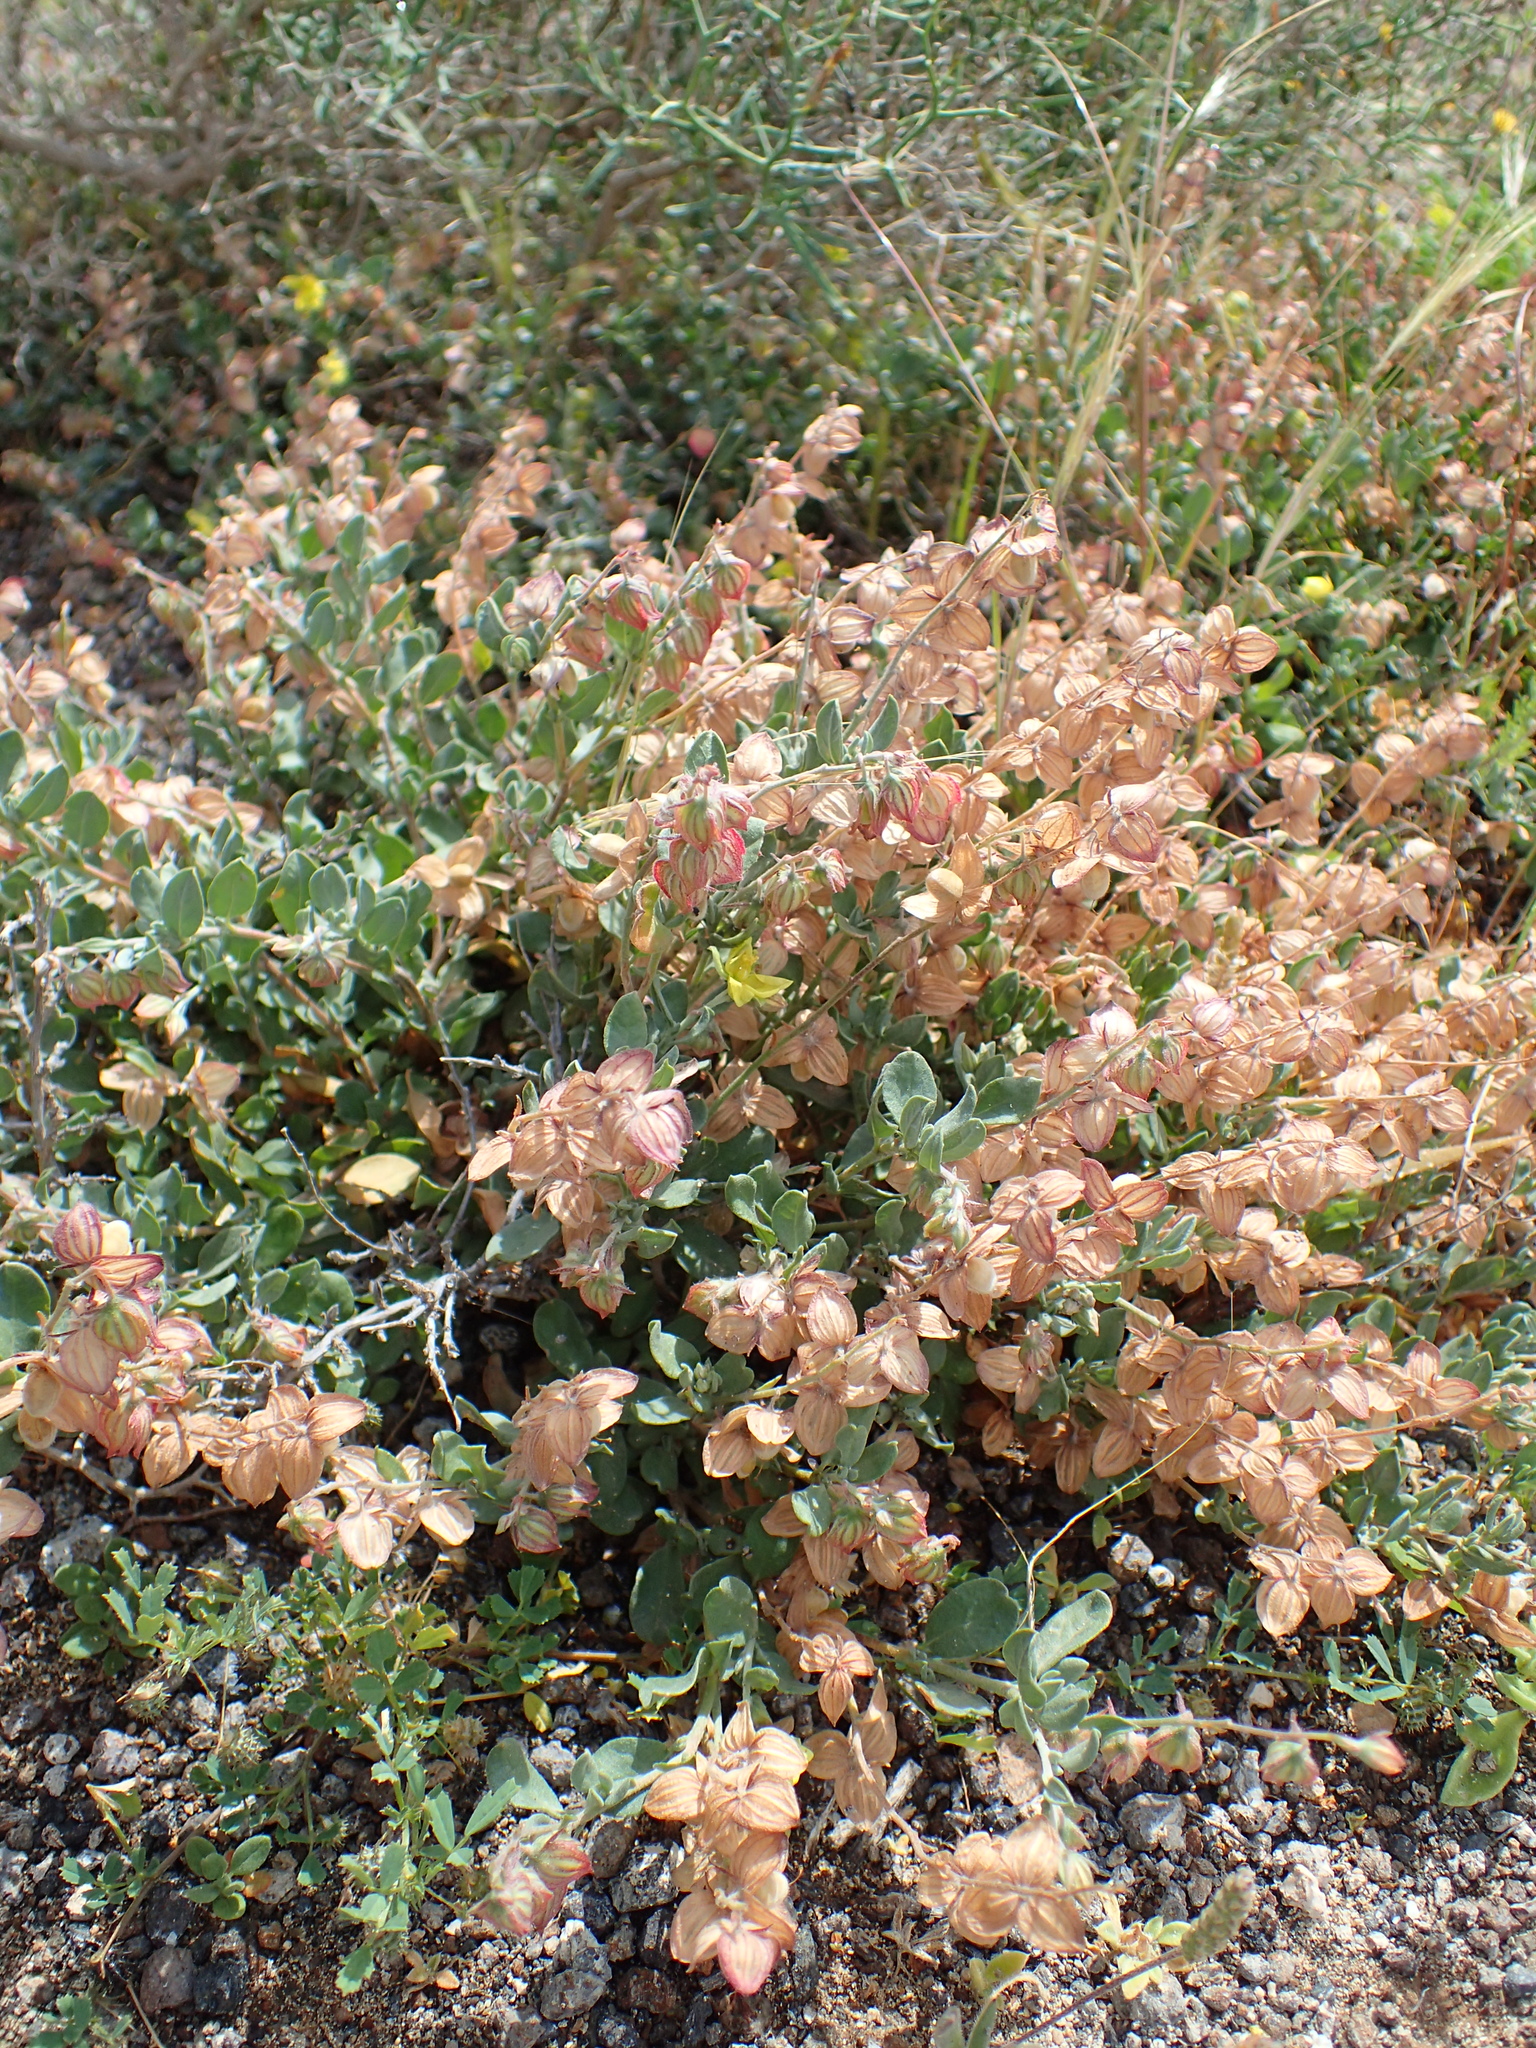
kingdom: Plantae
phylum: Tracheophyta
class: Magnoliopsida
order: Malvales
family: Cistaceae
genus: Helianthemum
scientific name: Helianthemum canariense
